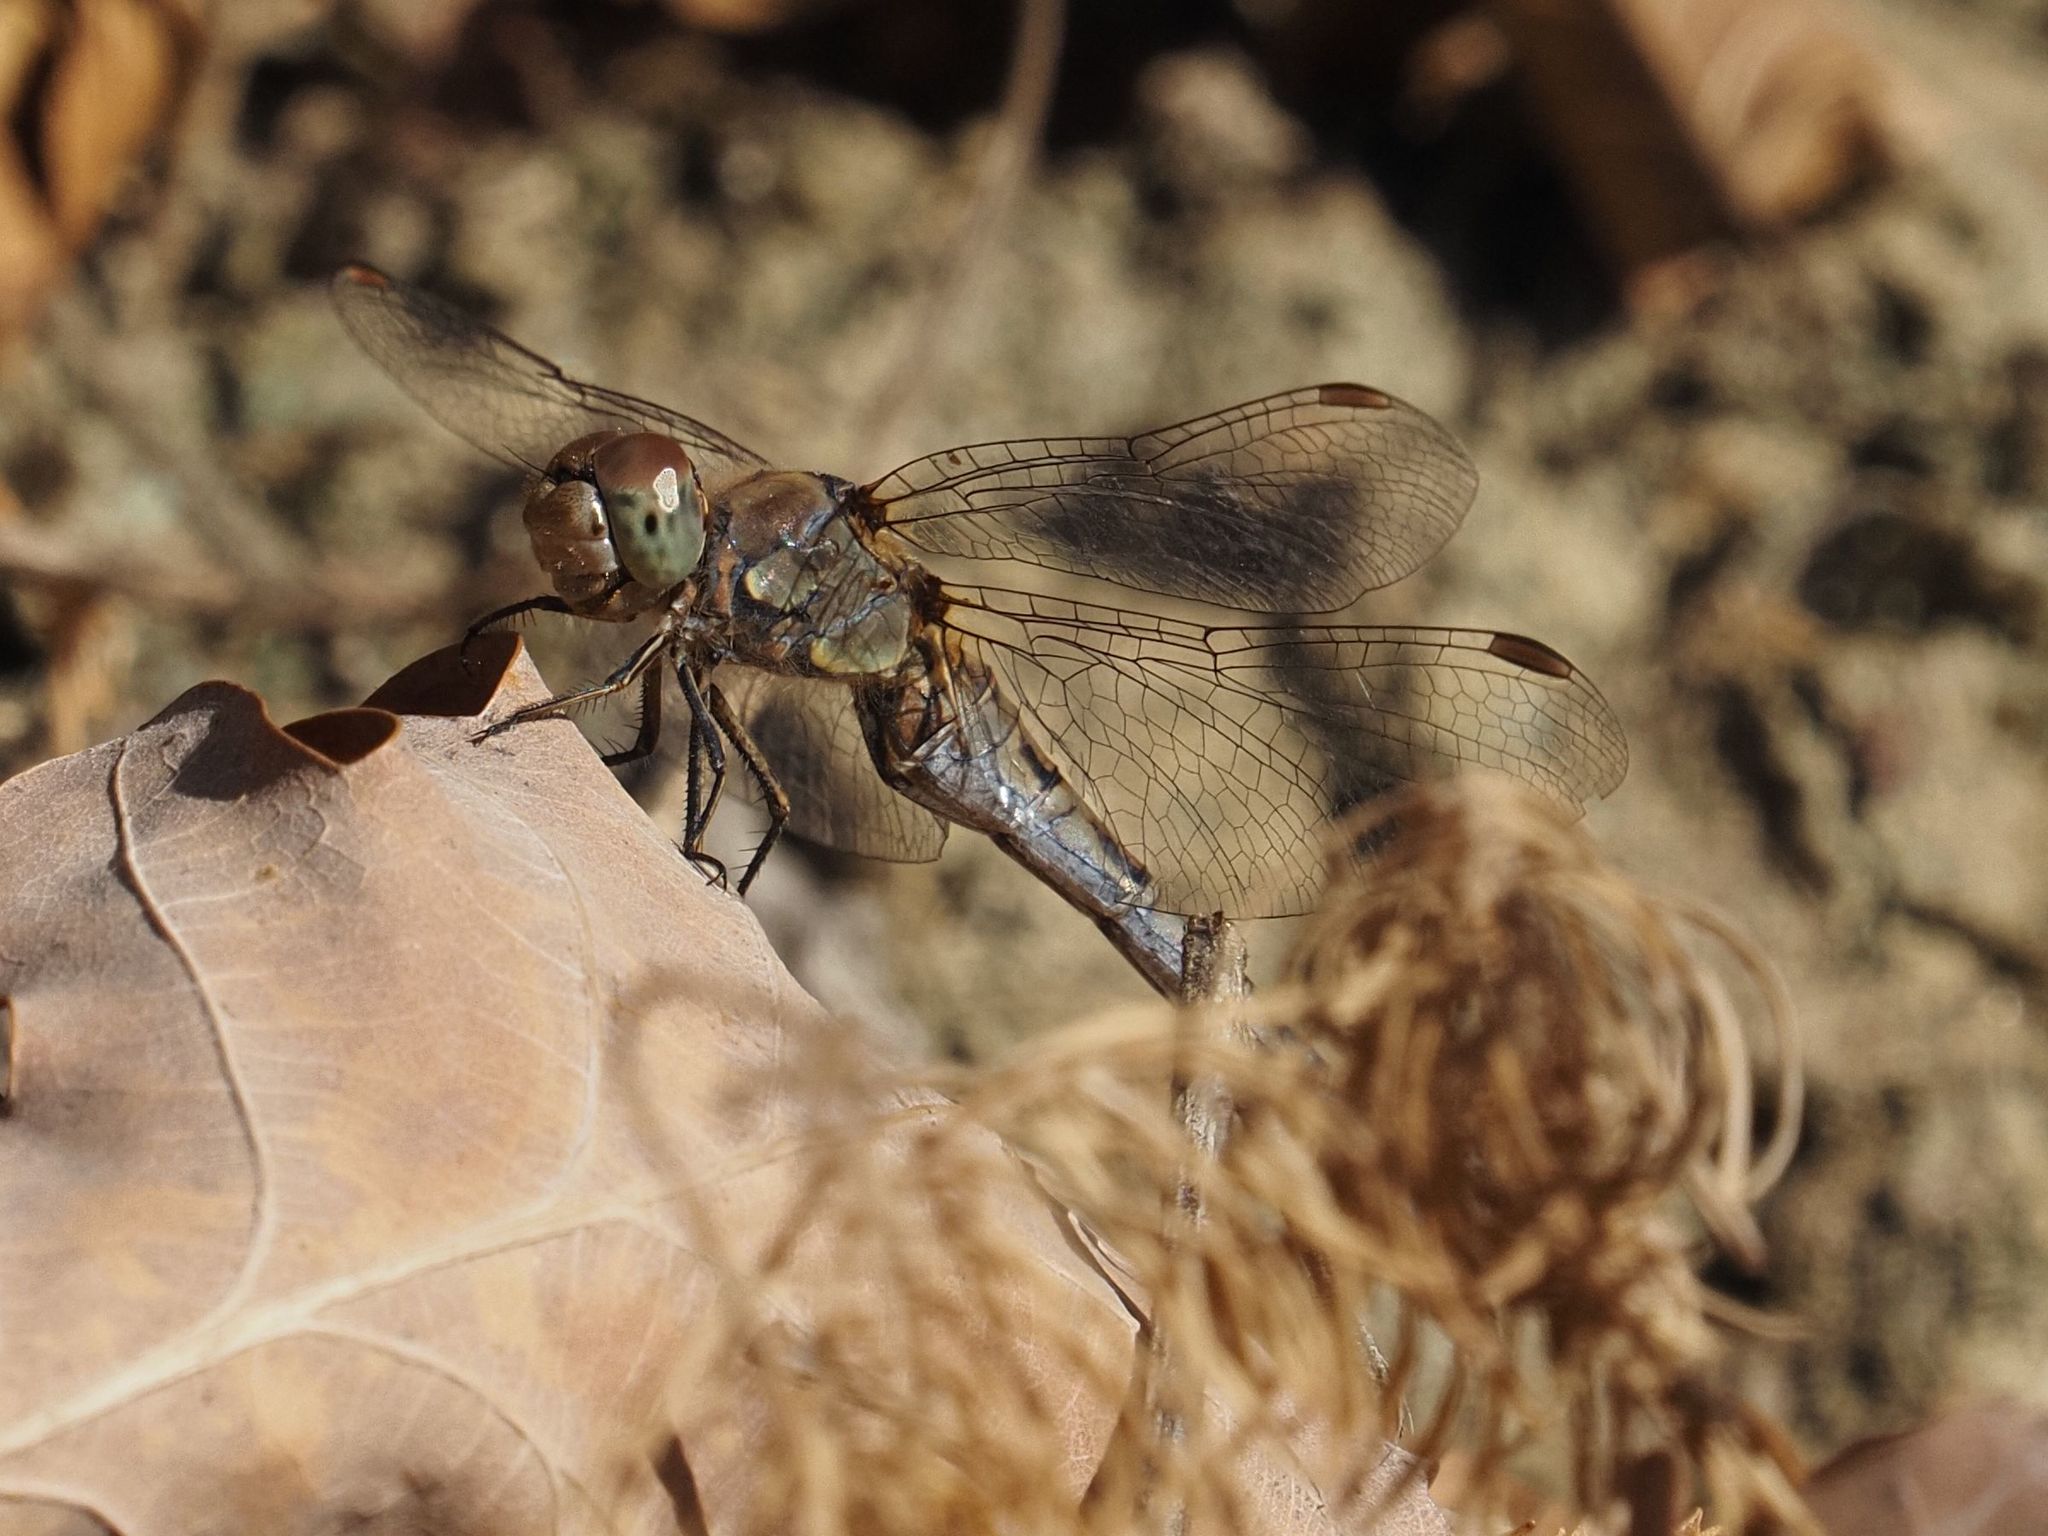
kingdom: Animalia
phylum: Arthropoda
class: Insecta
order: Odonata
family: Libellulidae
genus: Sympetrum
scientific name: Sympetrum striolatum
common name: Common darter
